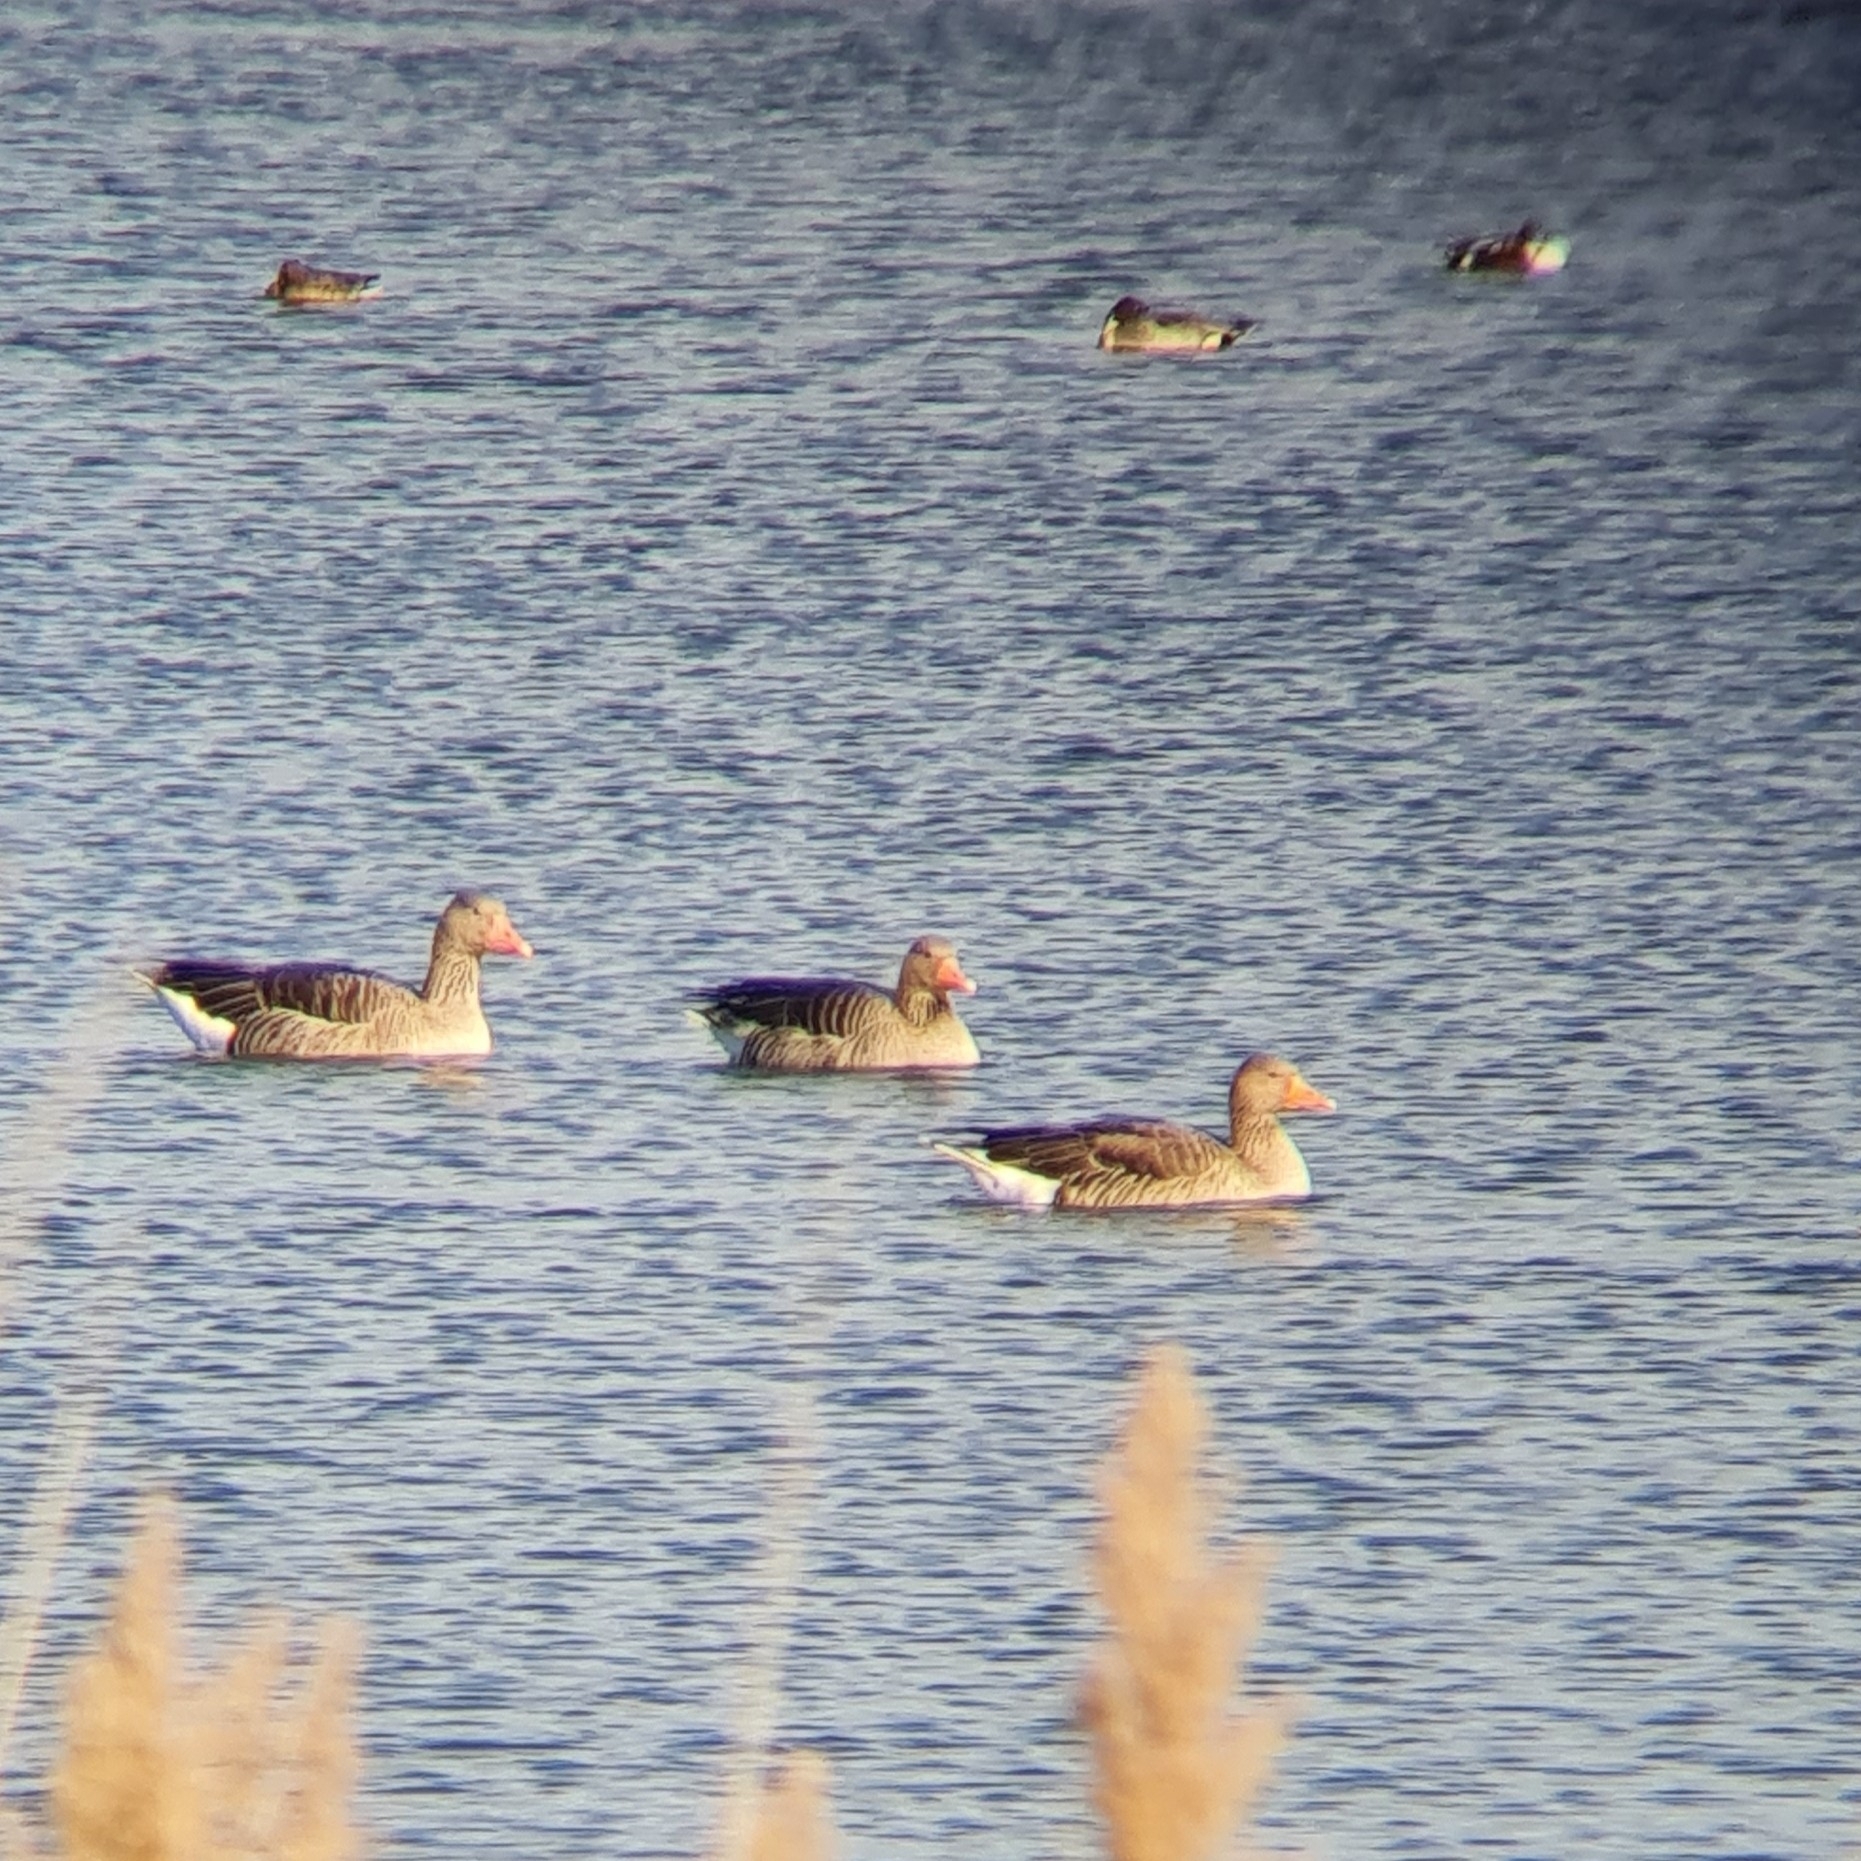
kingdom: Animalia
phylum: Chordata
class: Aves
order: Anseriformes
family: Anatidae
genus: Anser
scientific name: Anser anser
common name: Greylag goose
